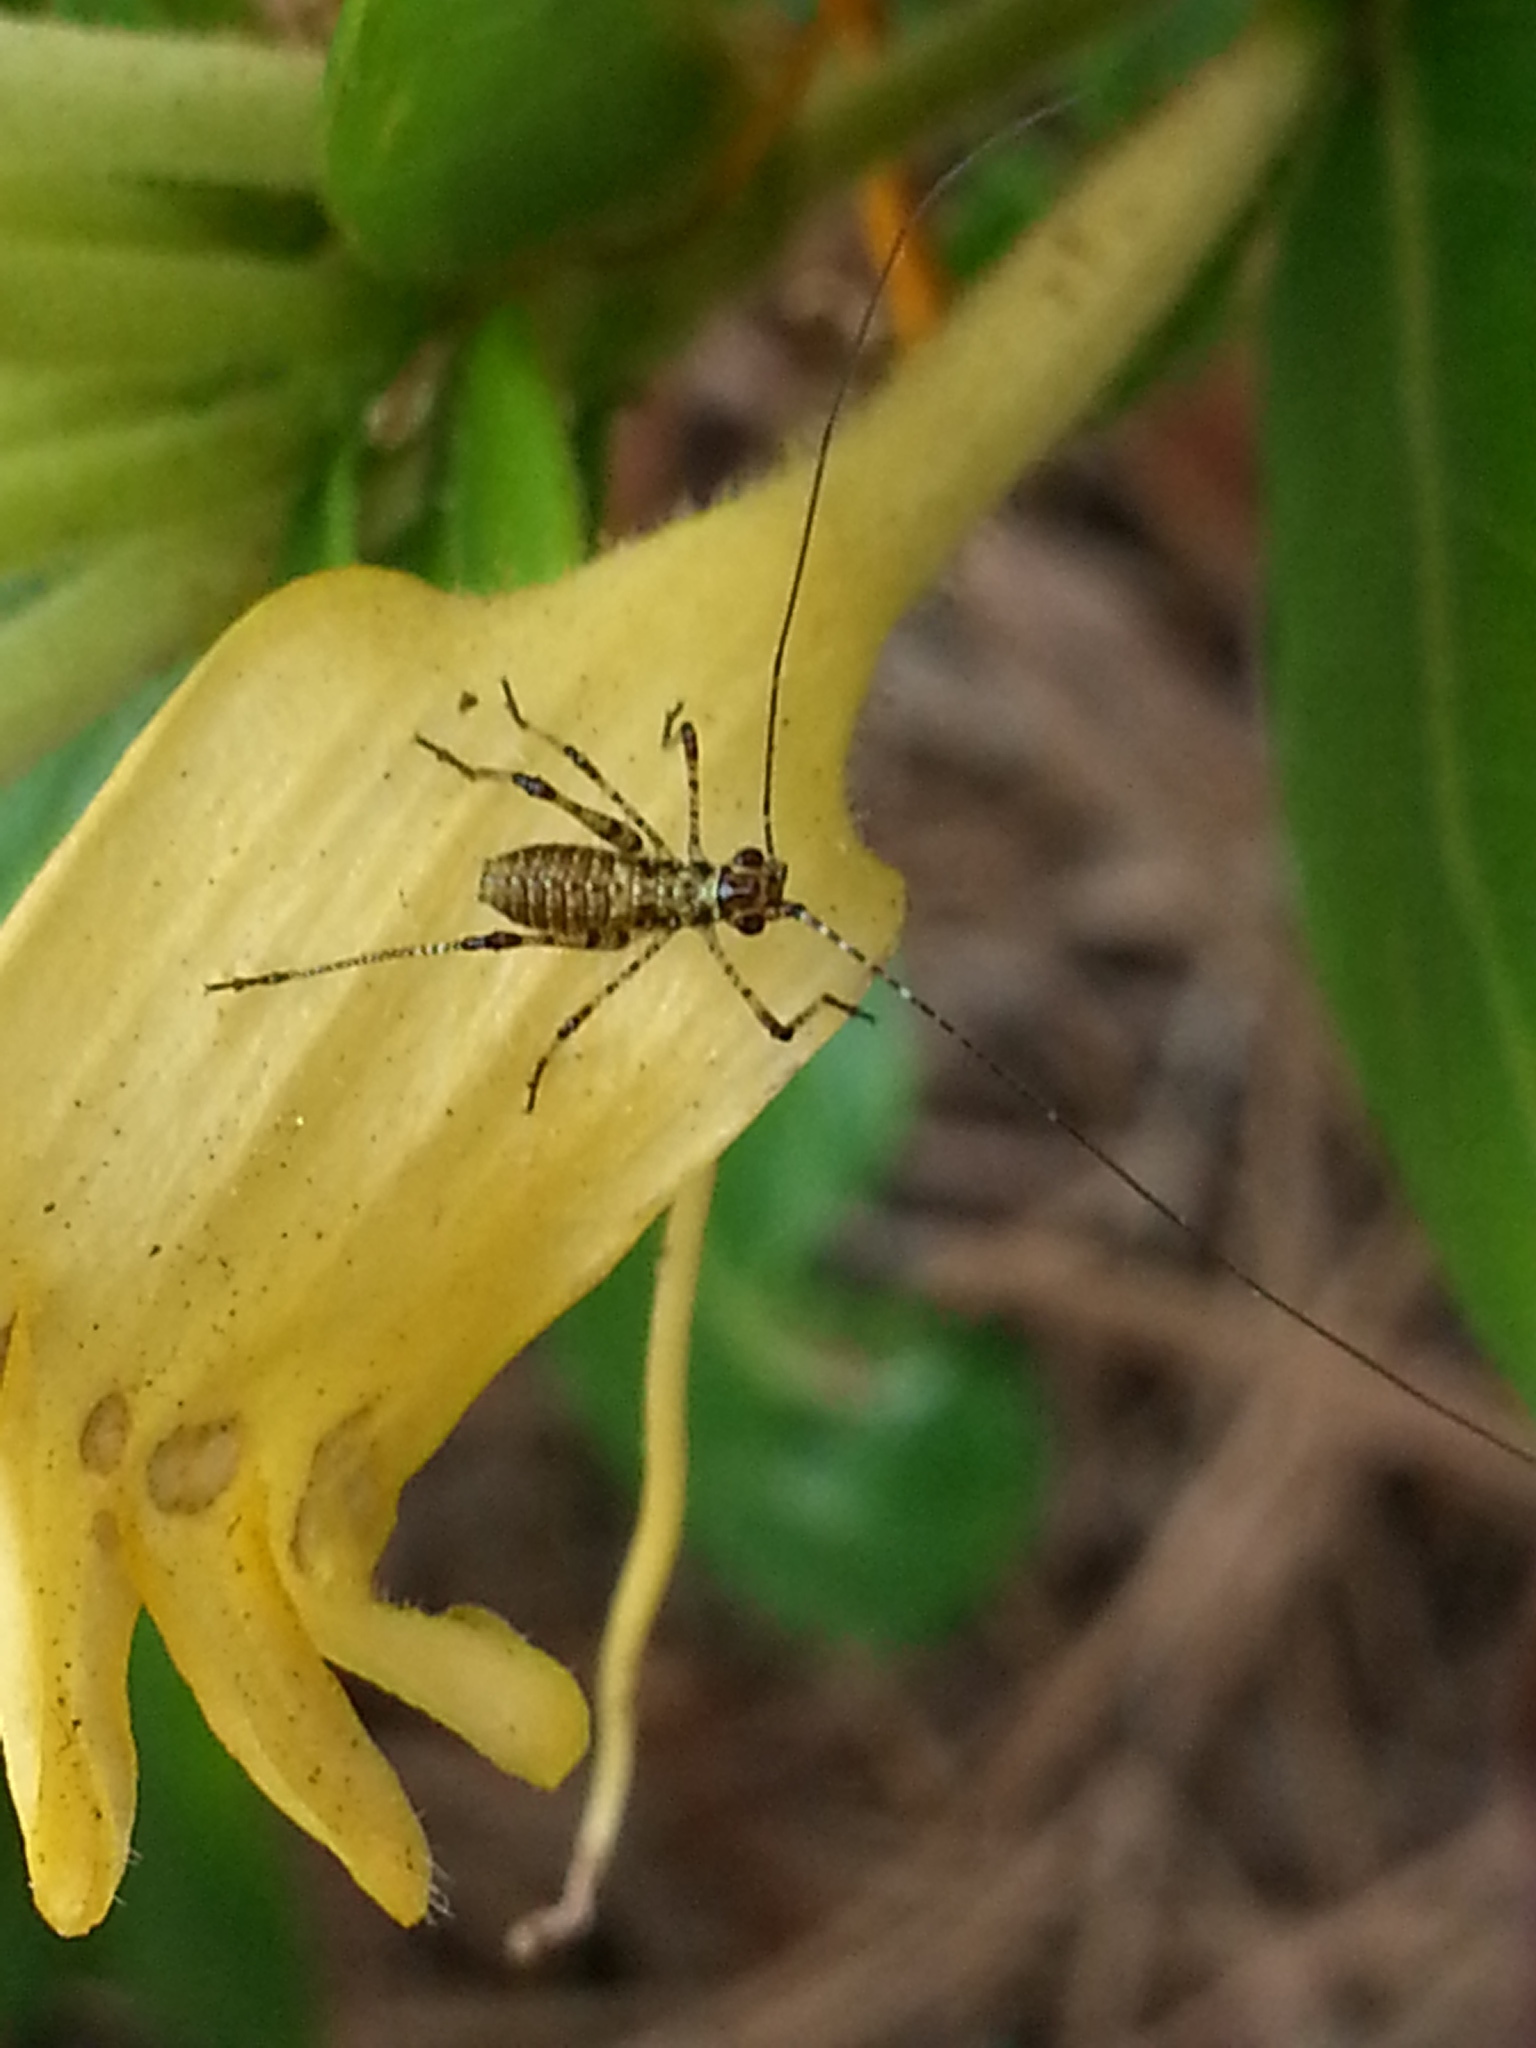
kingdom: Animalia
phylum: Arthropoda
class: Insecta
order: Orthoptera
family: Tettigoniidae
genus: Phaneroptera
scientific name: Phaneroptera nana
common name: Southern sickle bush-cricket
